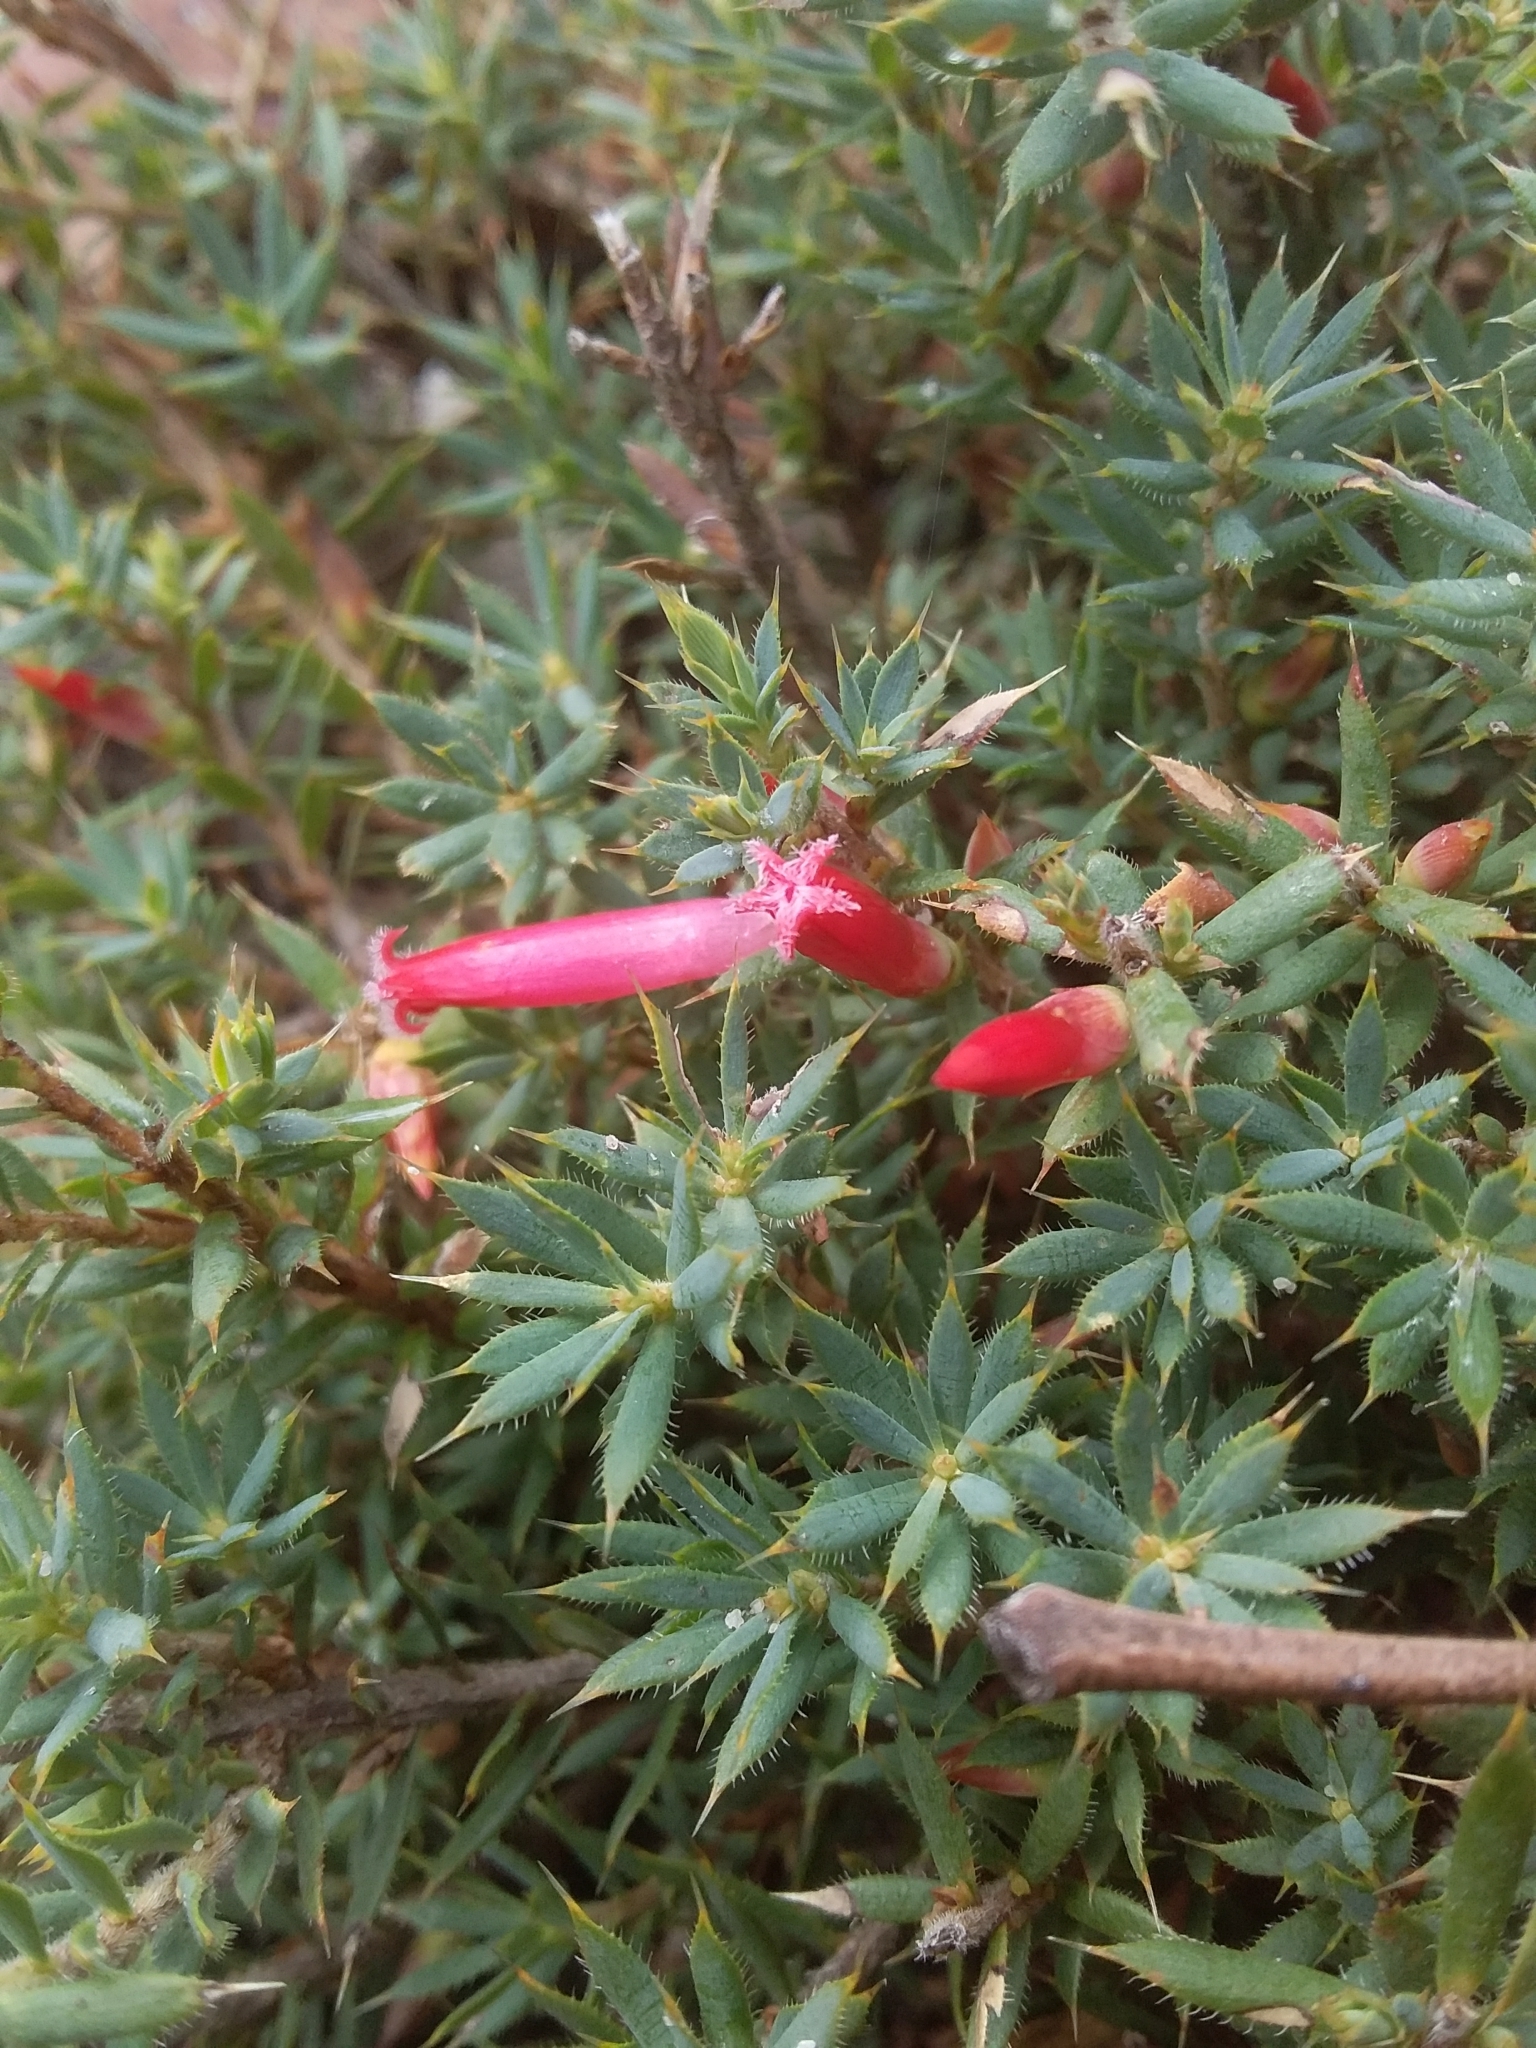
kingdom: Plantae
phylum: Tracheophyta
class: Magnoliopsida
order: Ericales
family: Ericaceae
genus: Styphelia
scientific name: Styphelia humifusa
